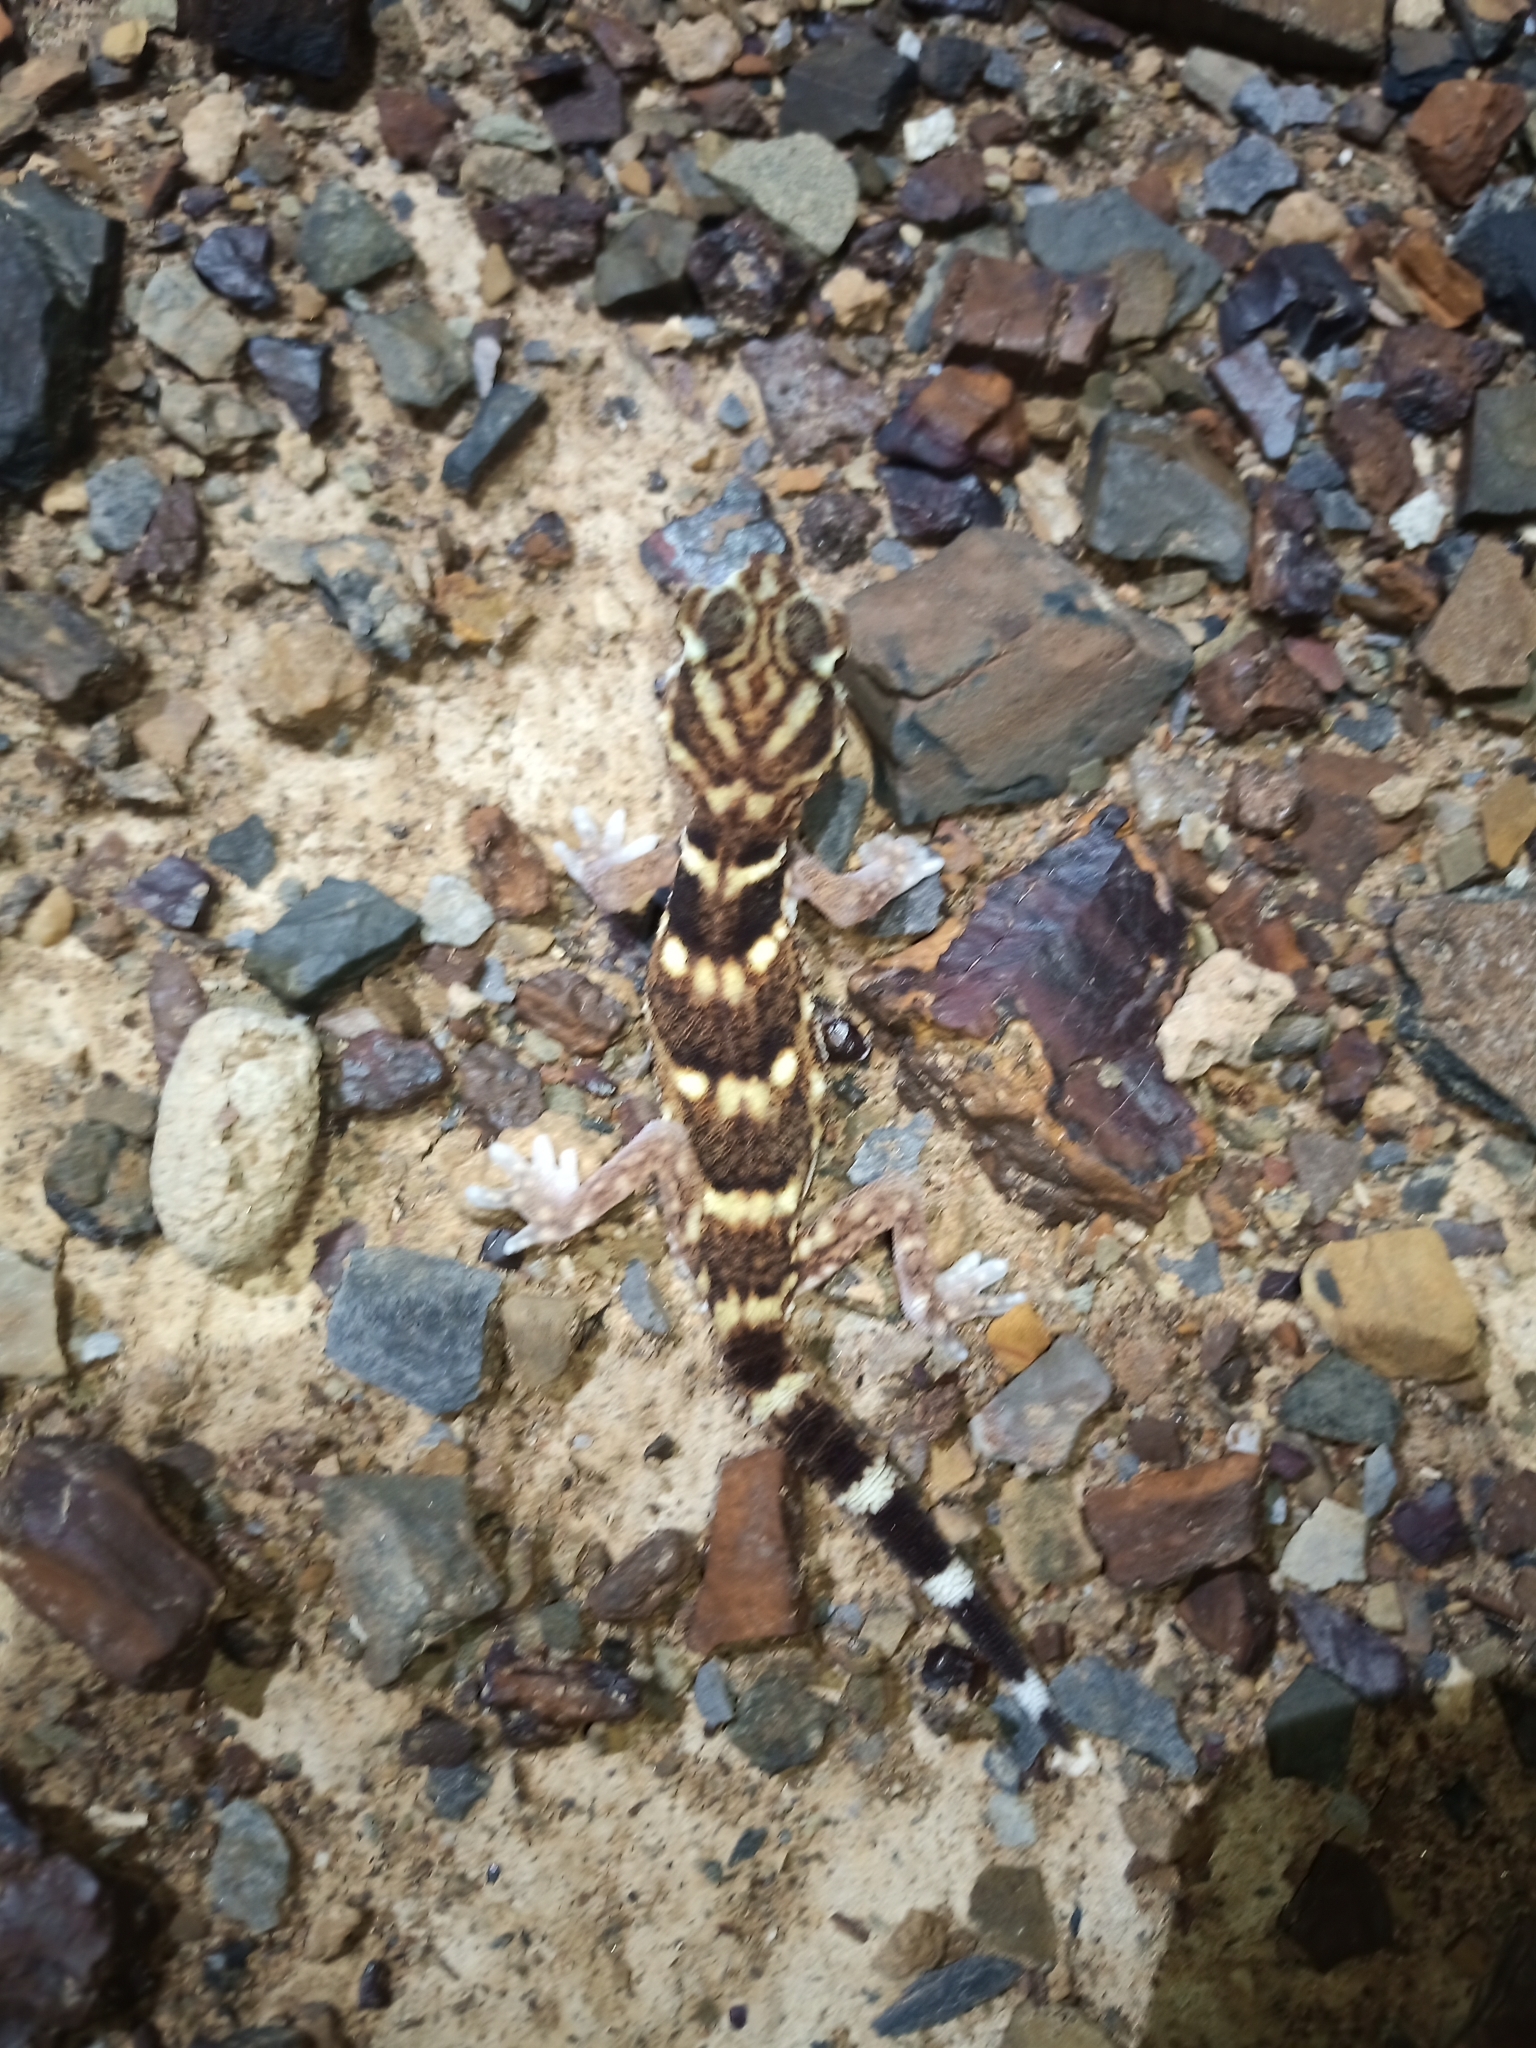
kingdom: Animalia
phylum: Chordata
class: Squamata
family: Gekkonidae
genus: Chondrodactylus
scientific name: Chondrodactylus angulifer
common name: Common giant ground gecko
